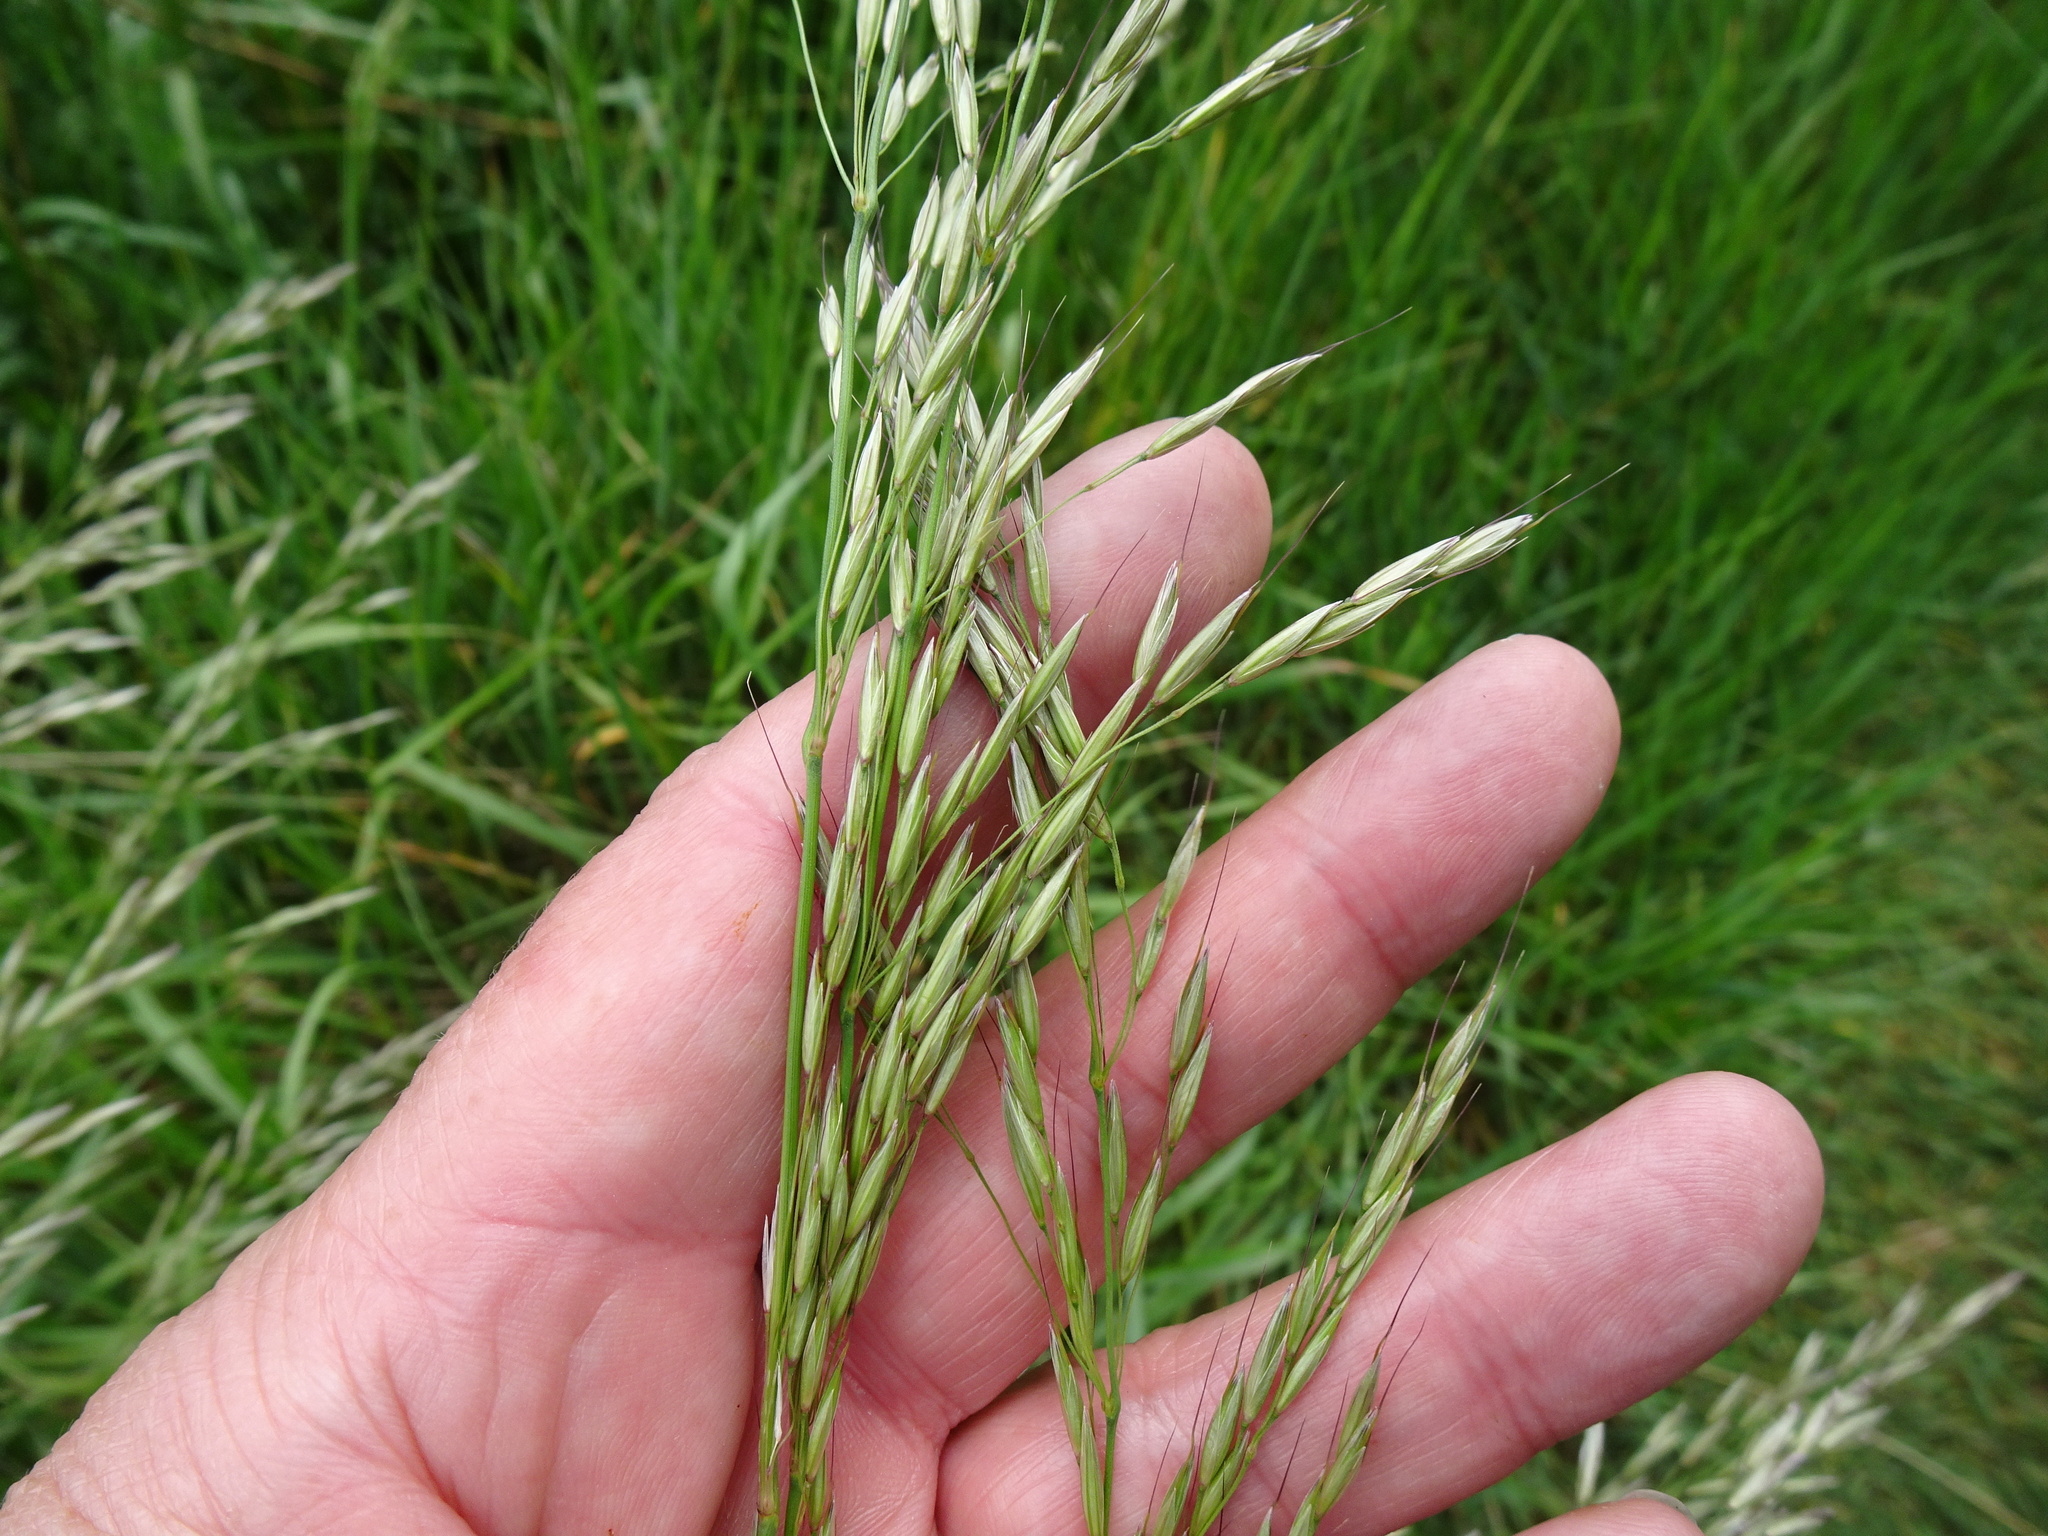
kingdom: Plantae
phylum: Tracheophyta
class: Liliopsida
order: Poales
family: Poaceae
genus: Arrhenatherum
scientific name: Arrhenatherum elatius
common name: Tall oatgrass
